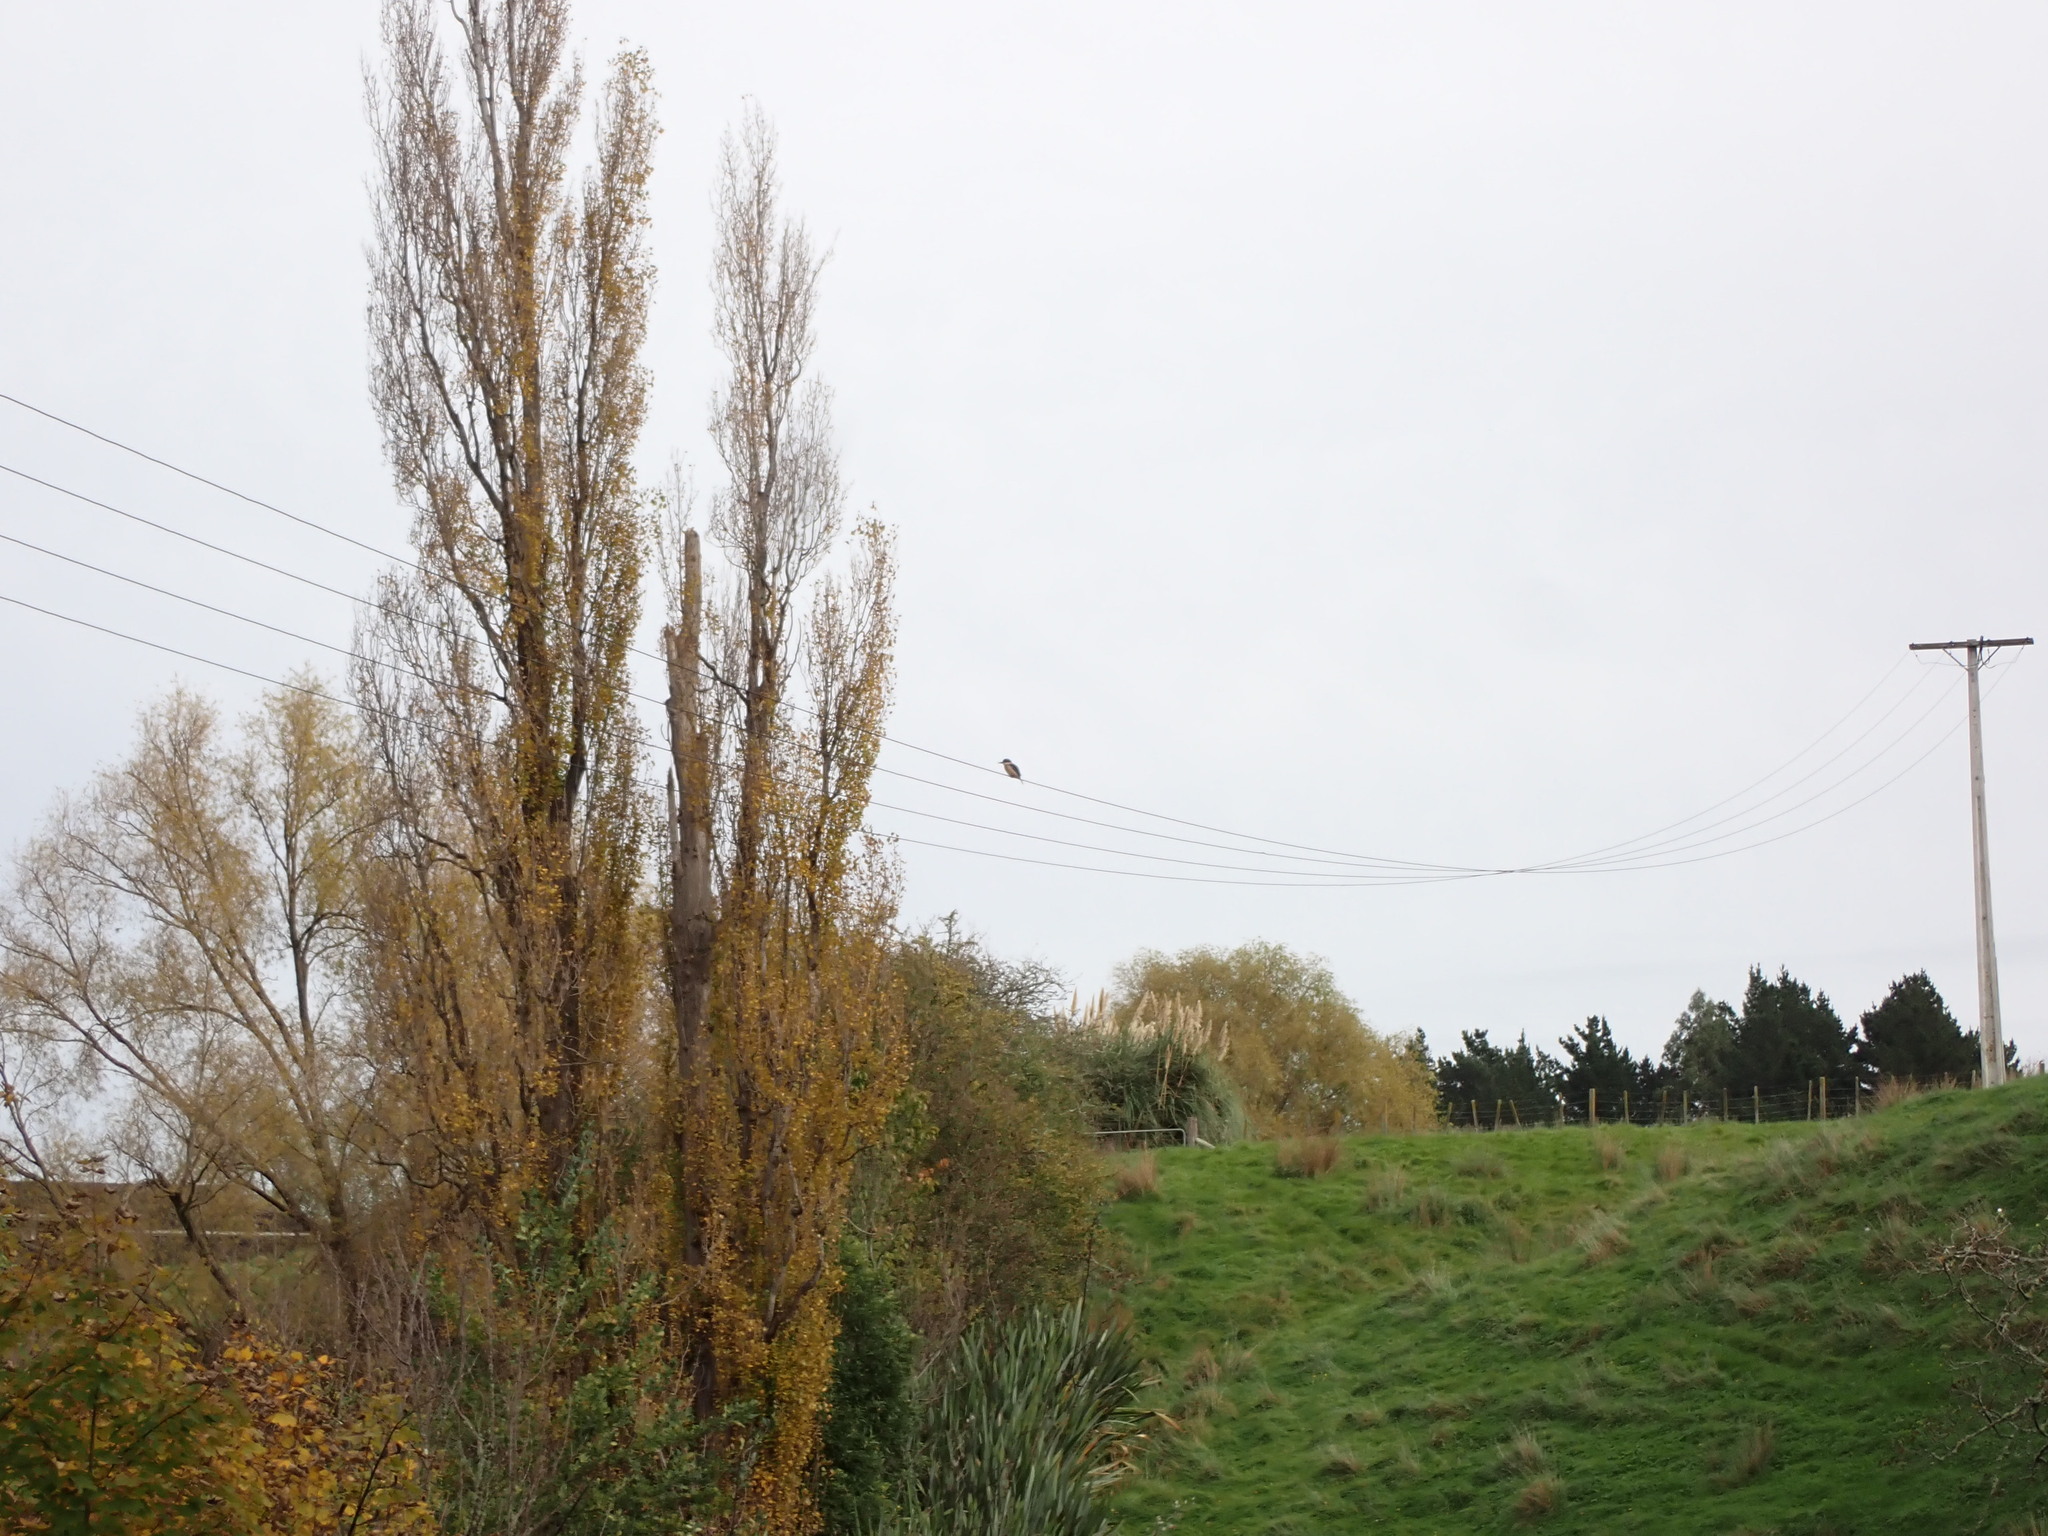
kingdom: Animalia
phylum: Chordata
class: Aves
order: Coraciiformes
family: Alcedinidae
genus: Todiramphus
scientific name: Todiramphus sanctus
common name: Sacred kingfisher
